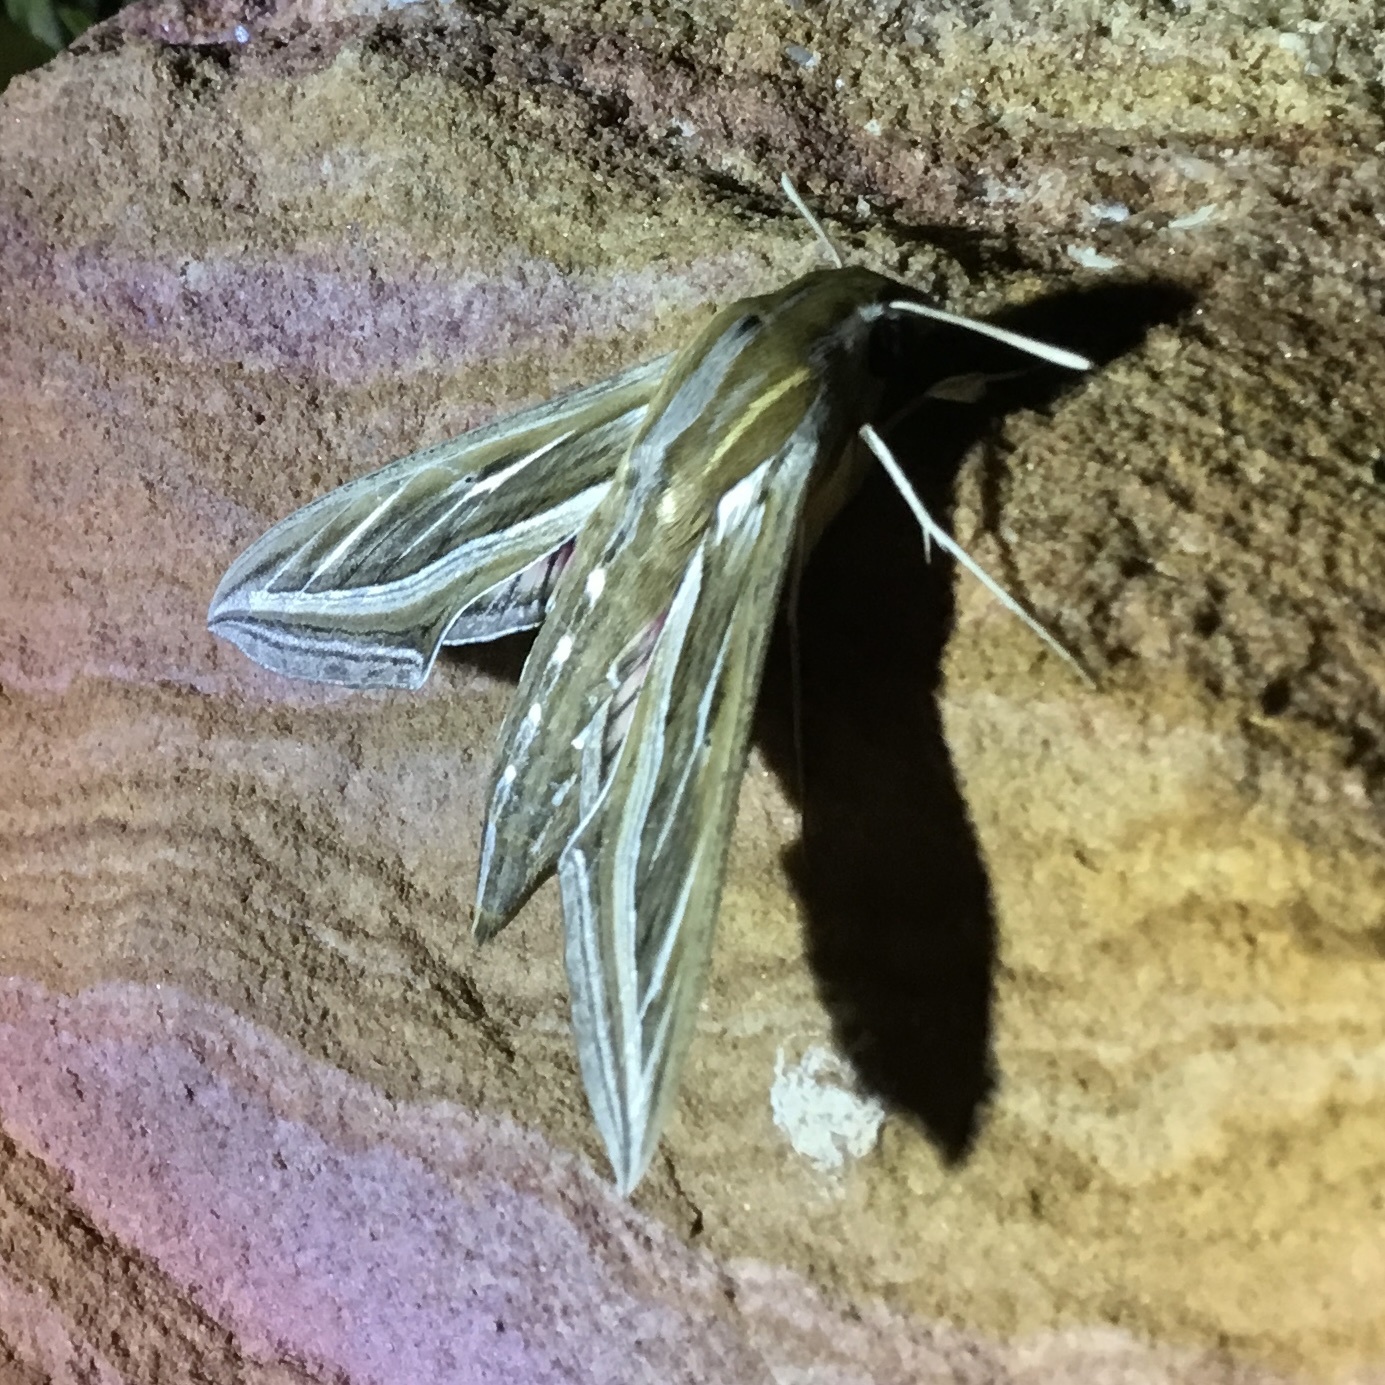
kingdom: Animalia
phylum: Arthropoda
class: Insecta
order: Lepidoptera
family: Sphingidae
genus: Hippotion
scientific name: Hippotion celerio
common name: Silver-striped hawk-moth
